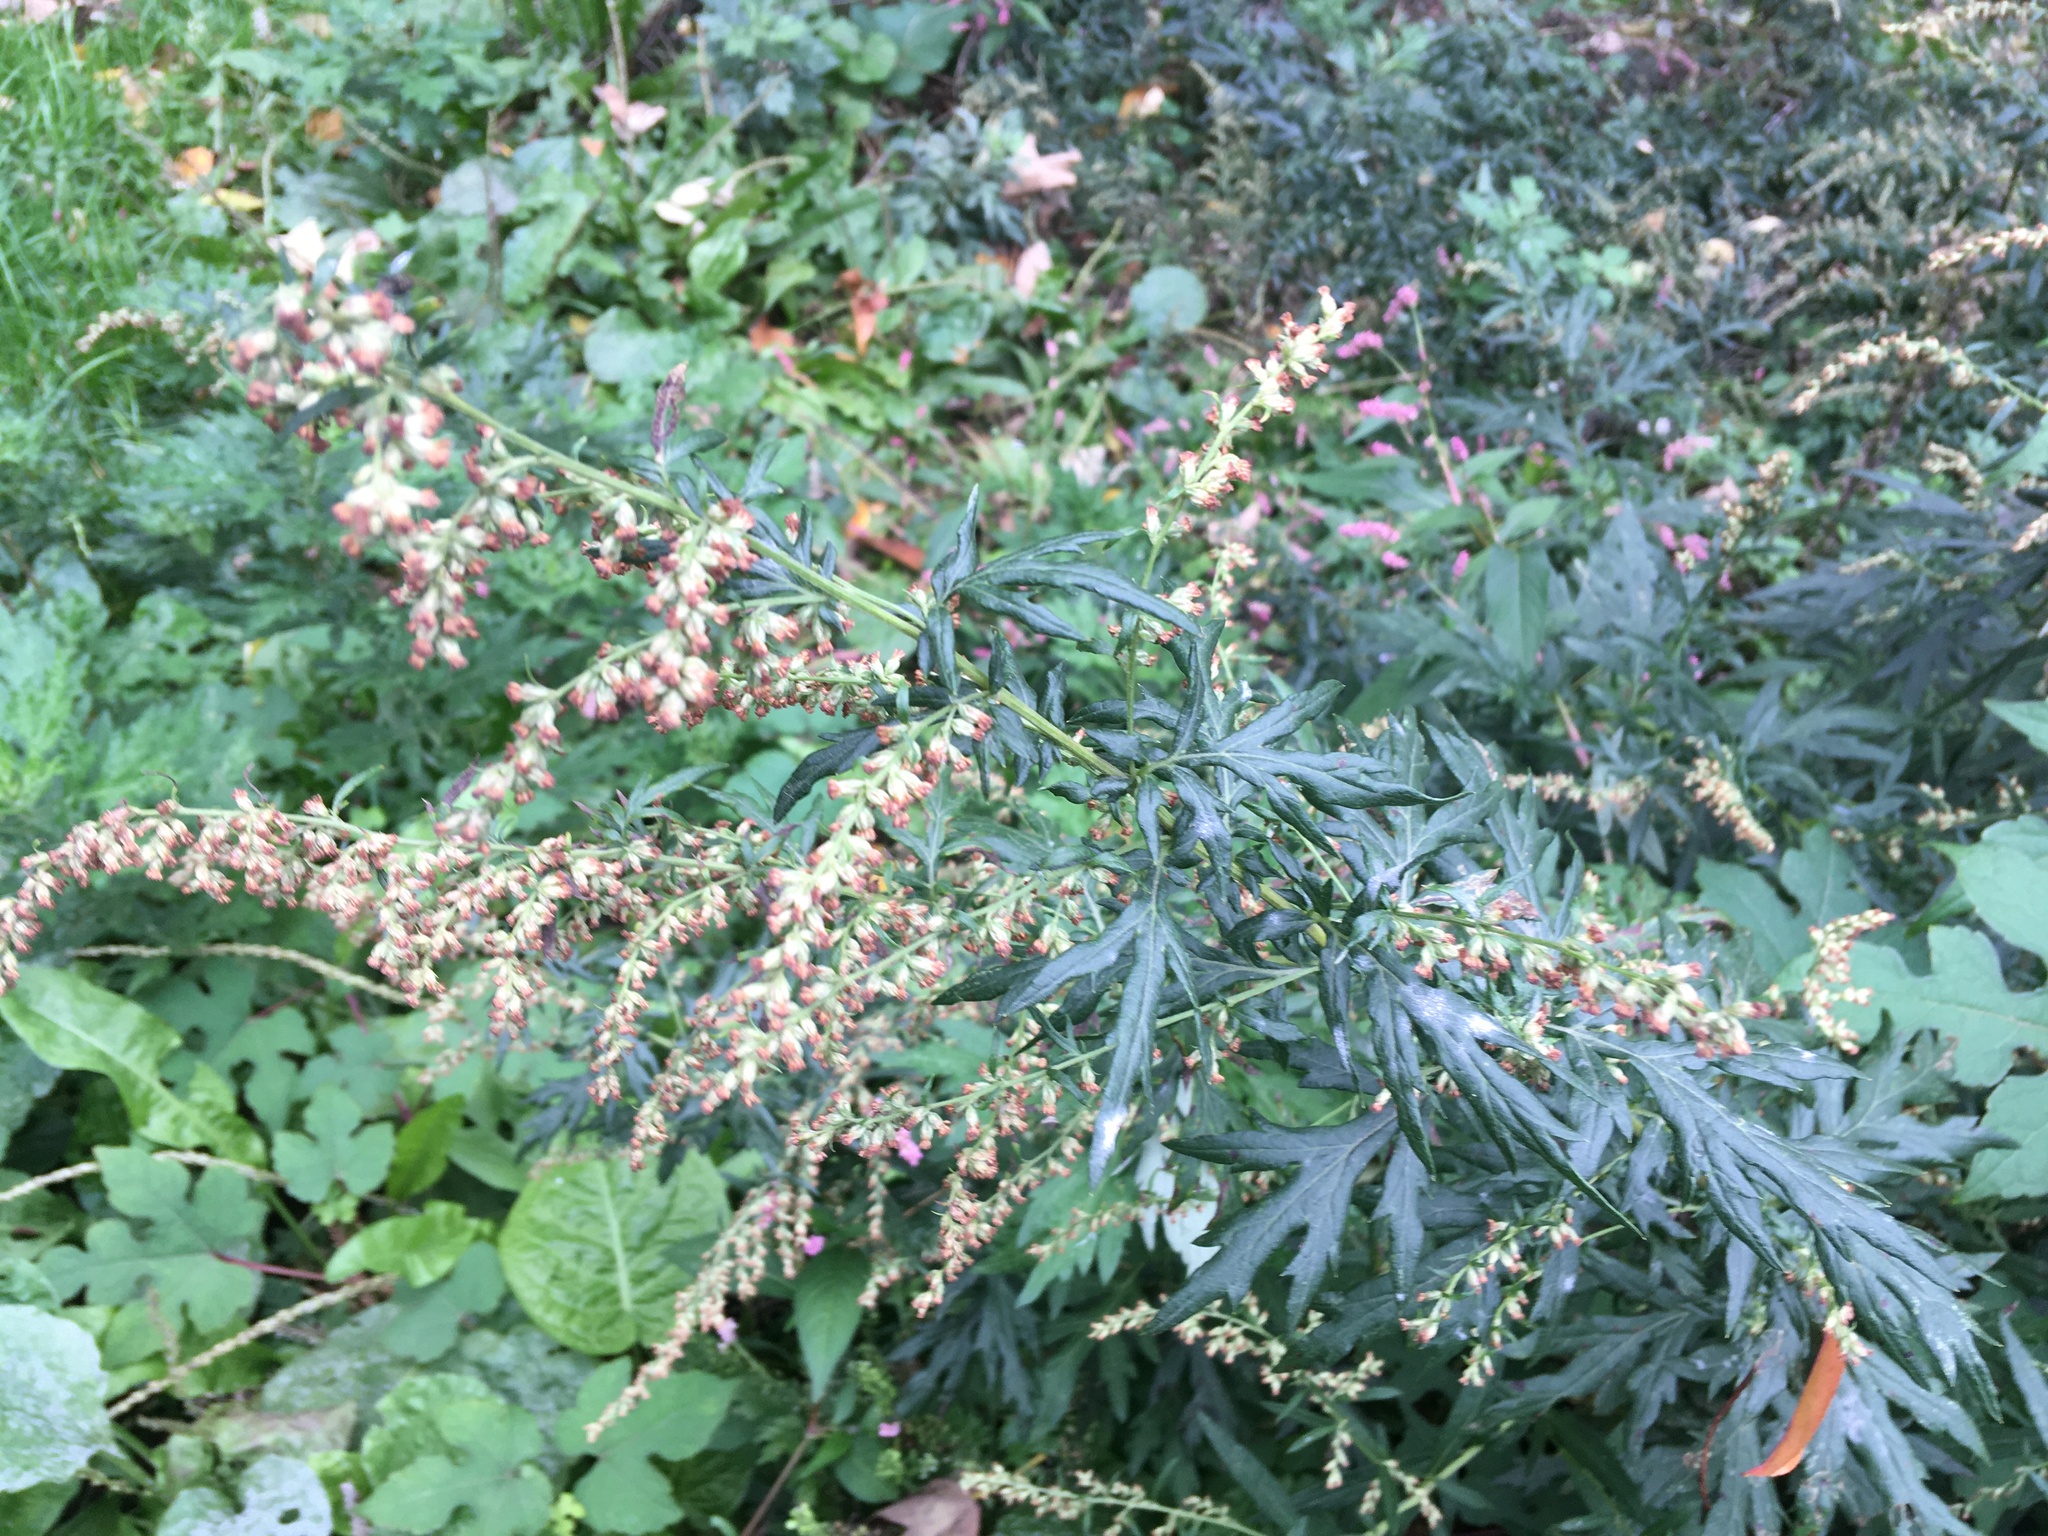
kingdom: Plantae
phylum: Tracheophyta
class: Magnoliopsida
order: Asterales
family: Asteraceae
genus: Artemisia
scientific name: Artemisia vulgaris
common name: Mugwort
